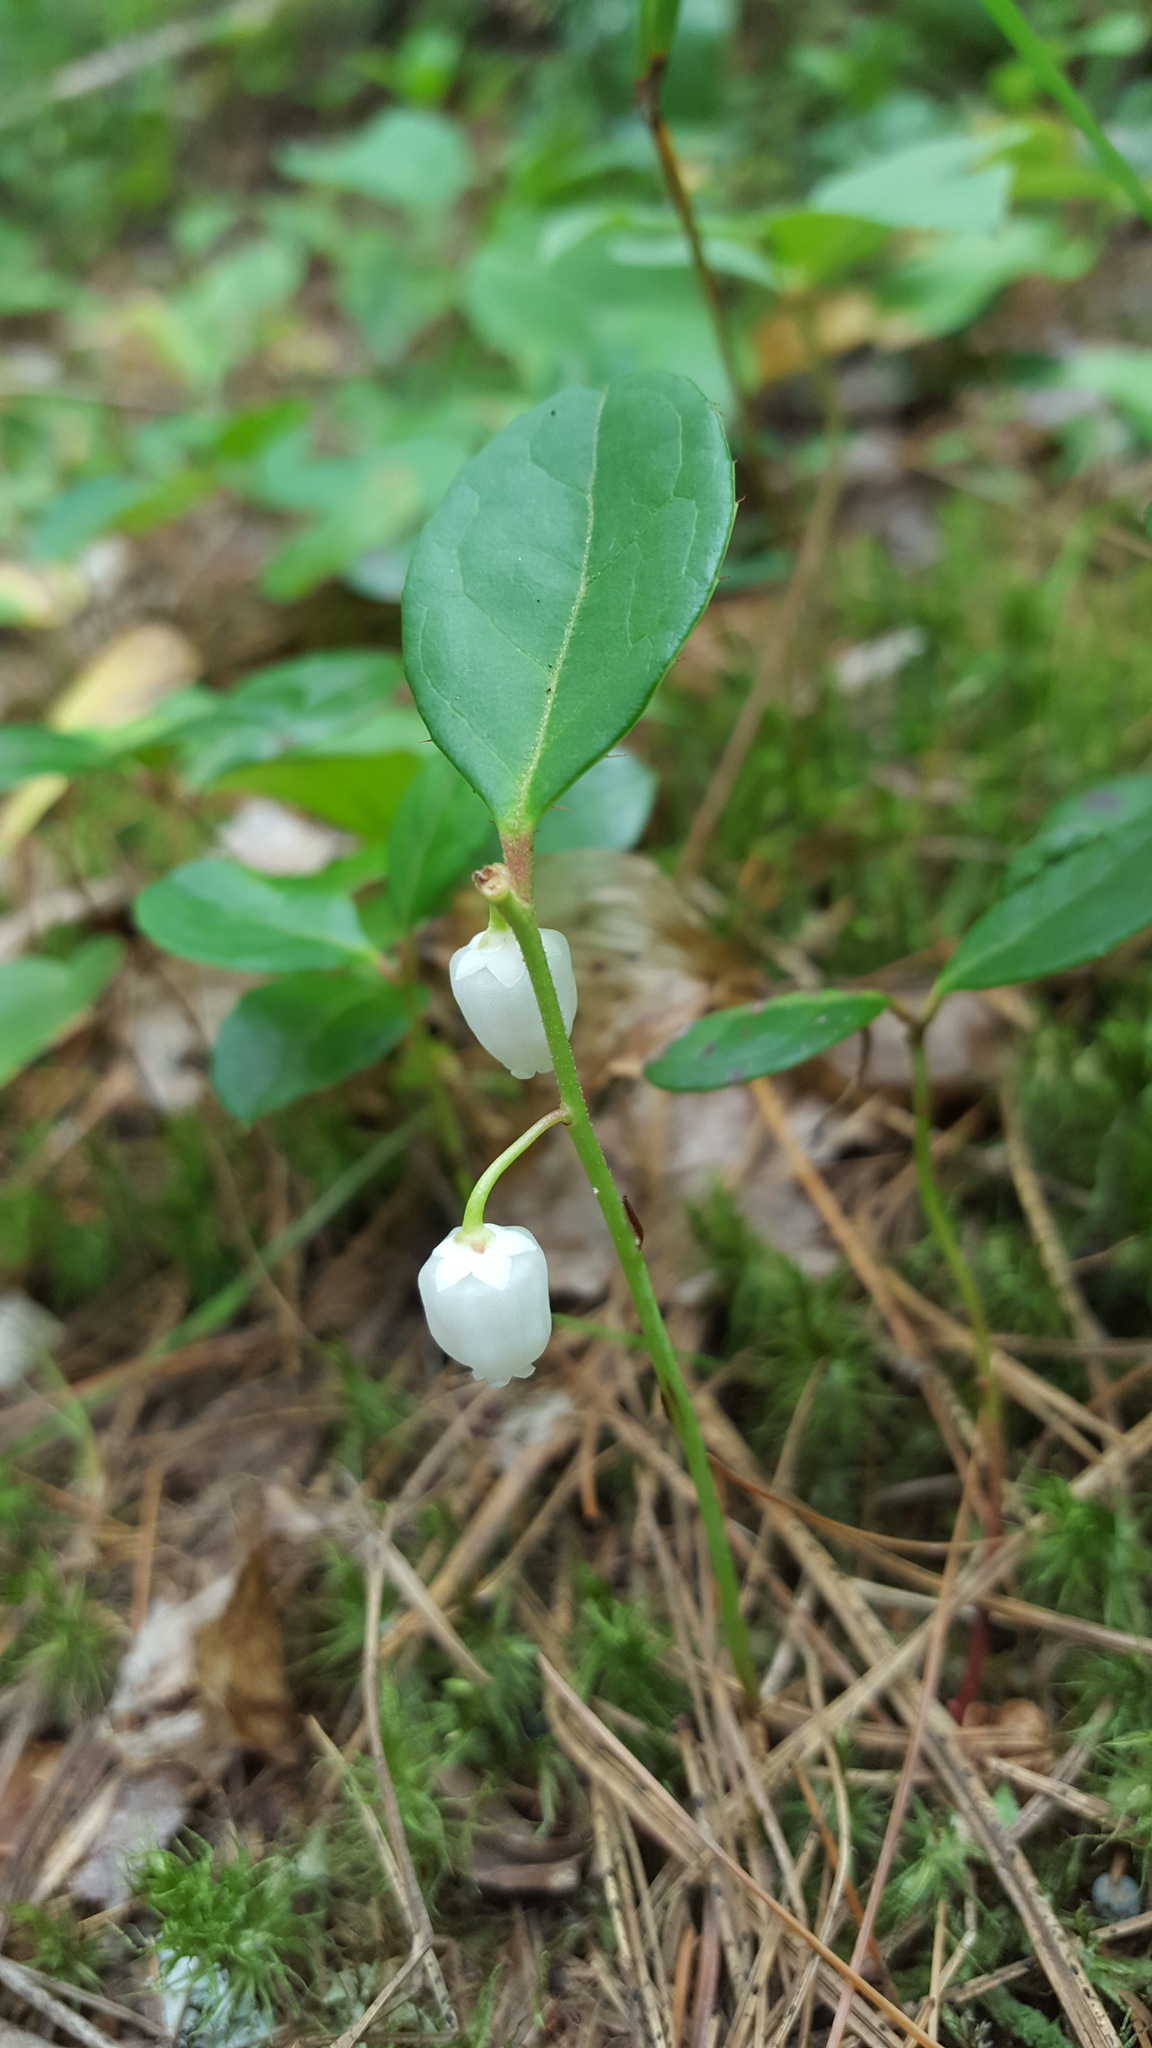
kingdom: Plantae
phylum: Tracheophyta
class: Magnoliopsida
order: Ericales
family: Ericaceae
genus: Gaultheria
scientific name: Gaultheria procumbens
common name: Checkerberry
